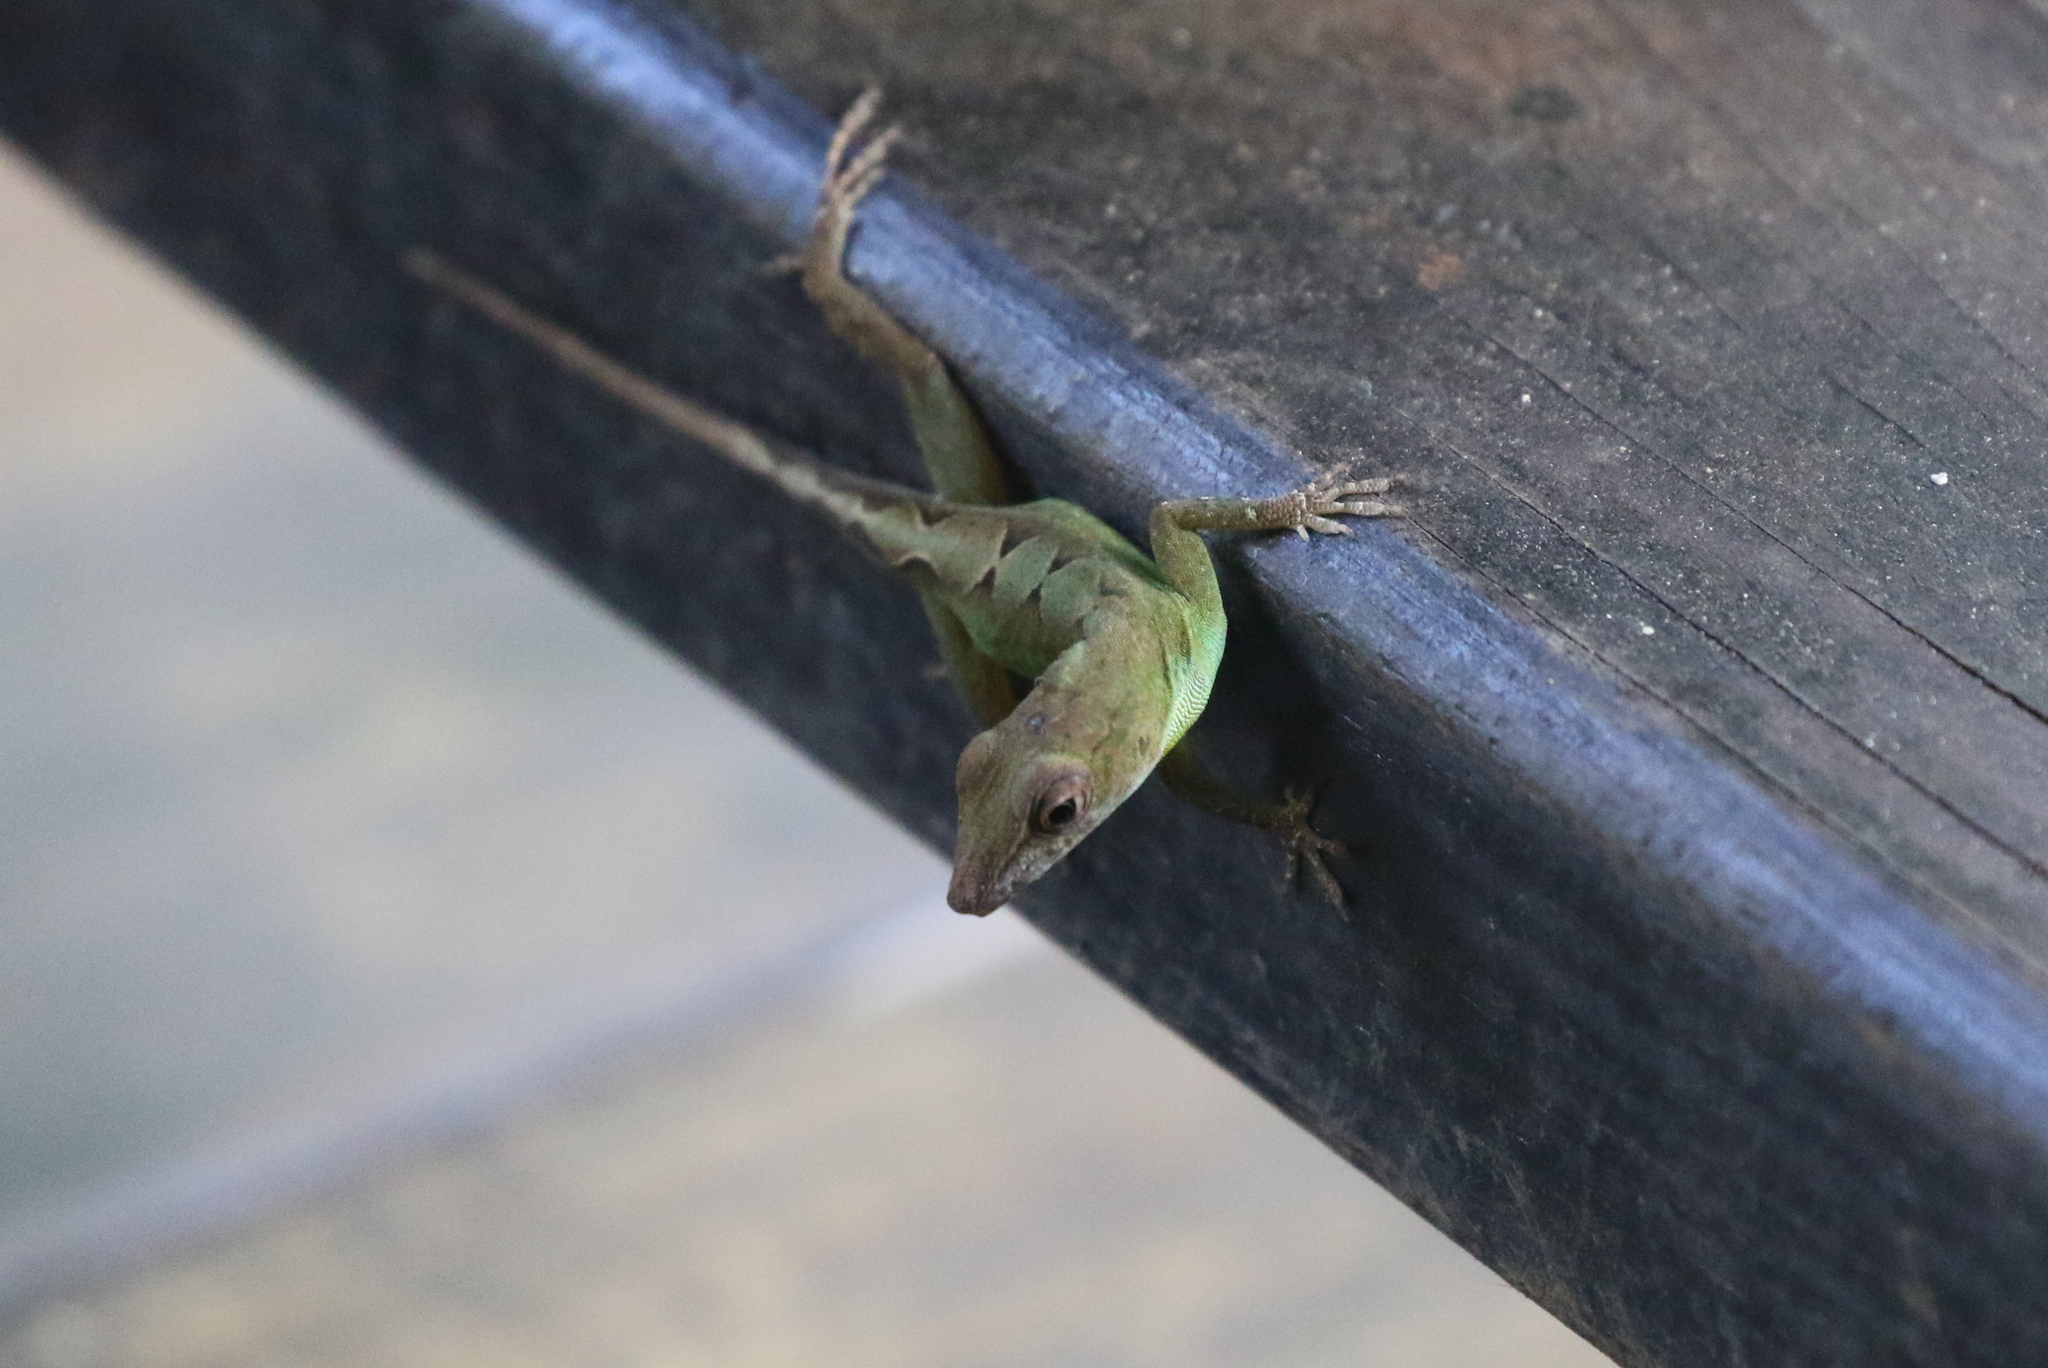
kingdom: Animalia
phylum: Chordata
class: Squamata
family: Dactyloidae
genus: Anolis
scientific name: Anolis grahami
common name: Graham's anole
